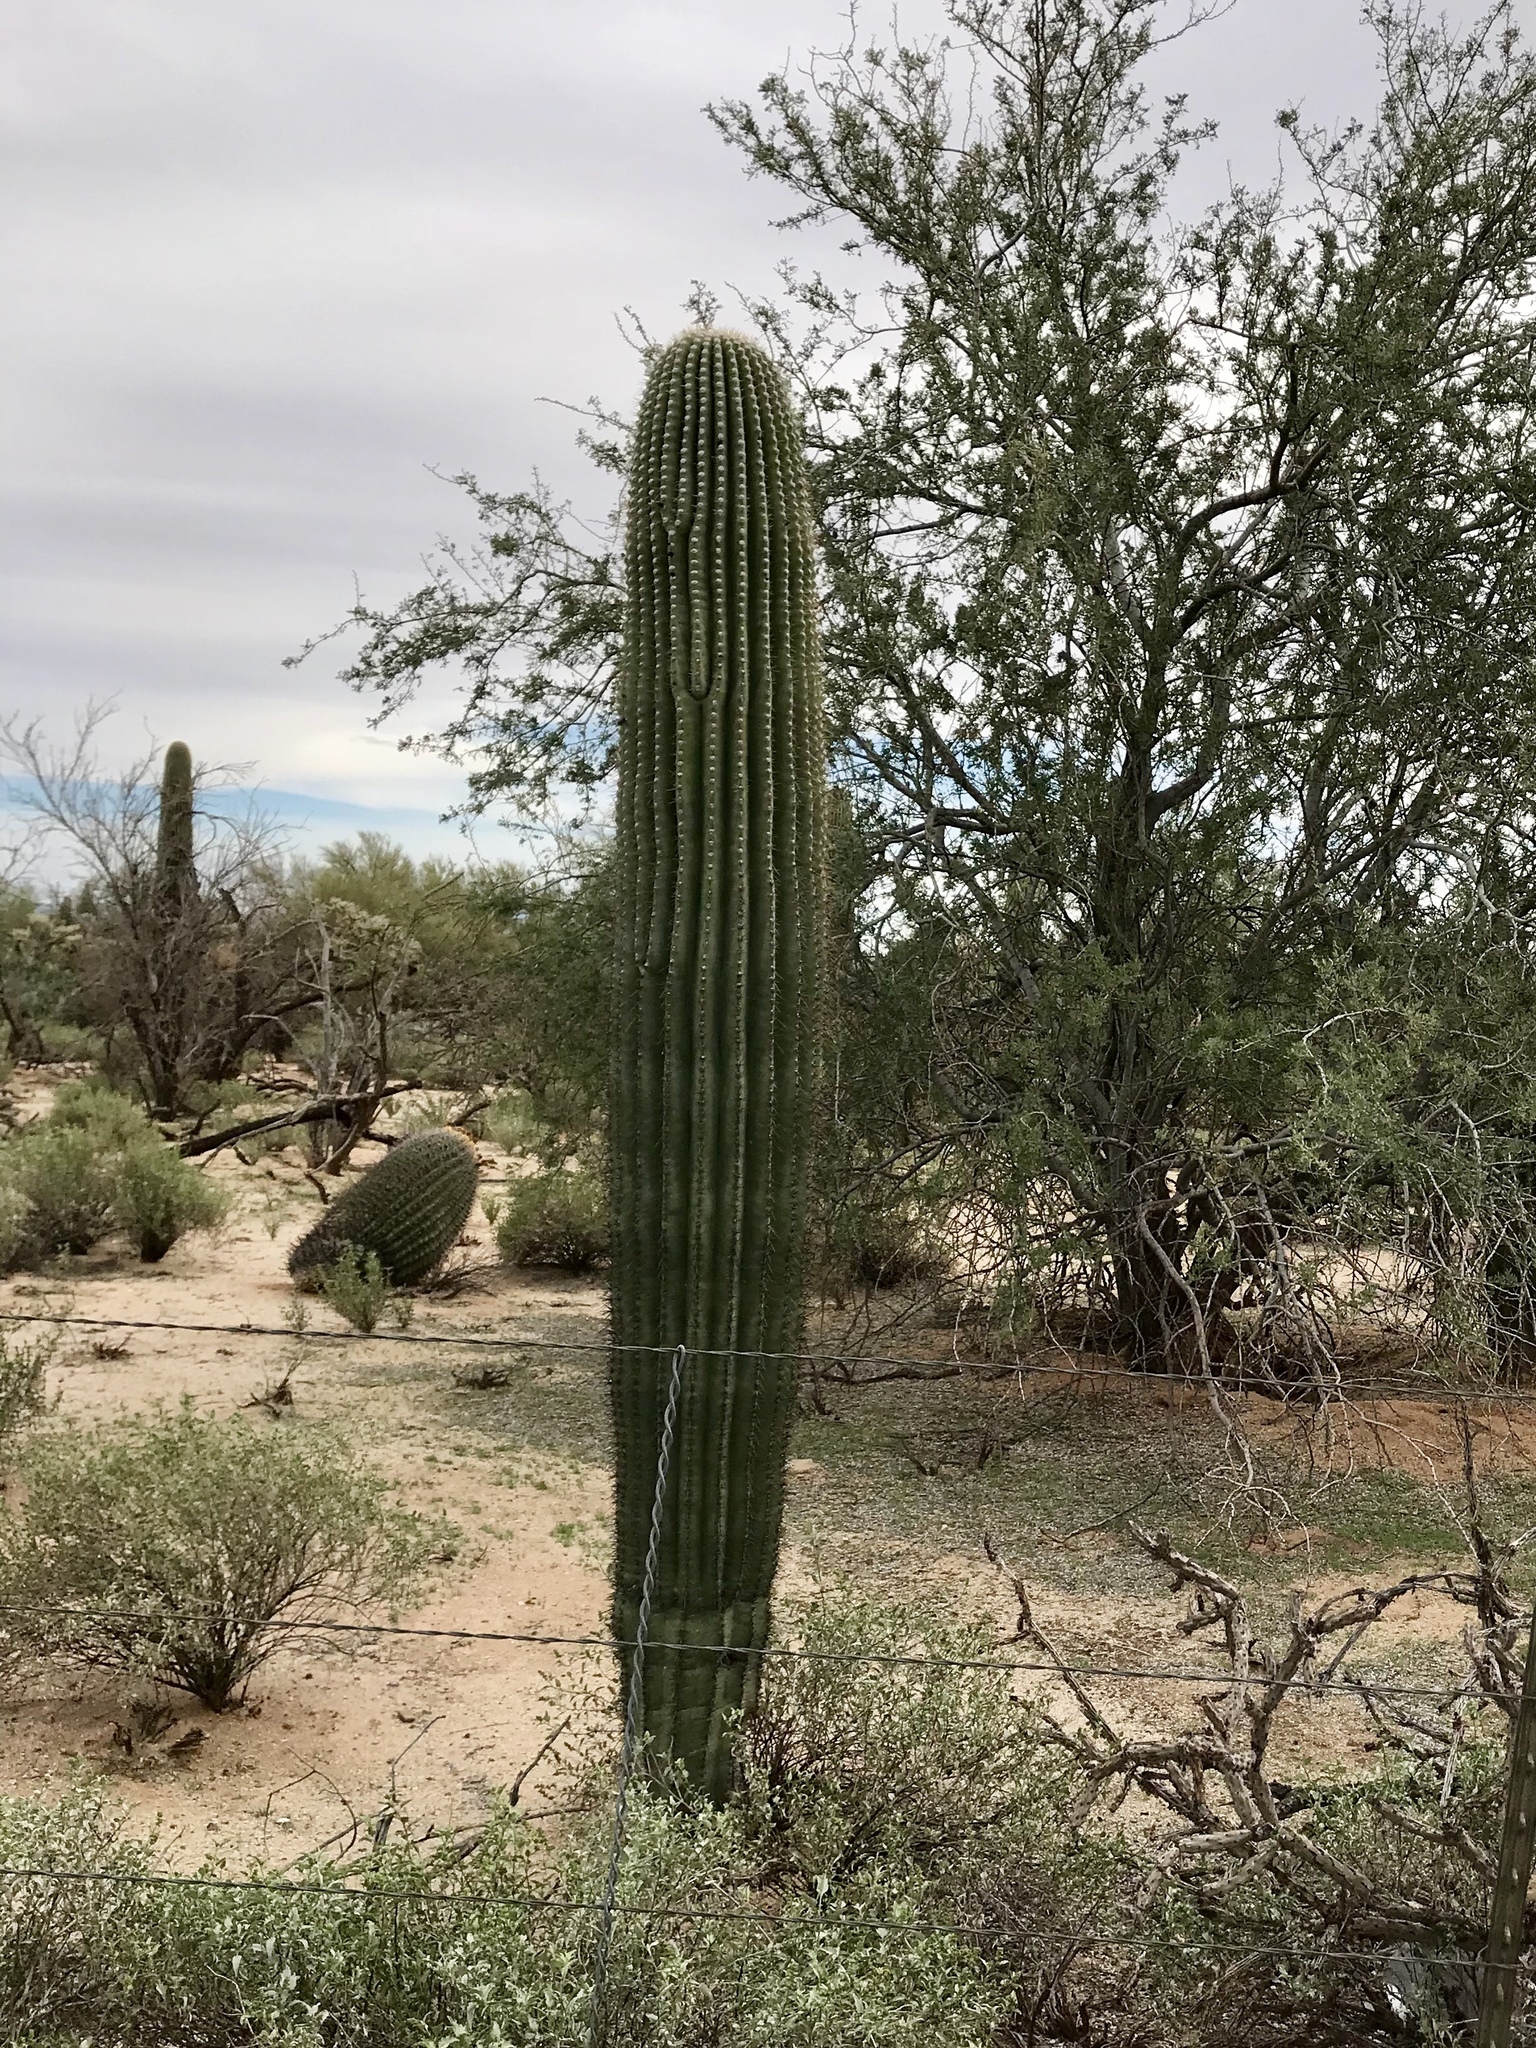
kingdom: Plantae
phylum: Tracheophyta
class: Magnoliopsida
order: Caryophyllales
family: Cactaceae
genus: Carnegiea
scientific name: Carnegiea gigantea
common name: Saguaro
